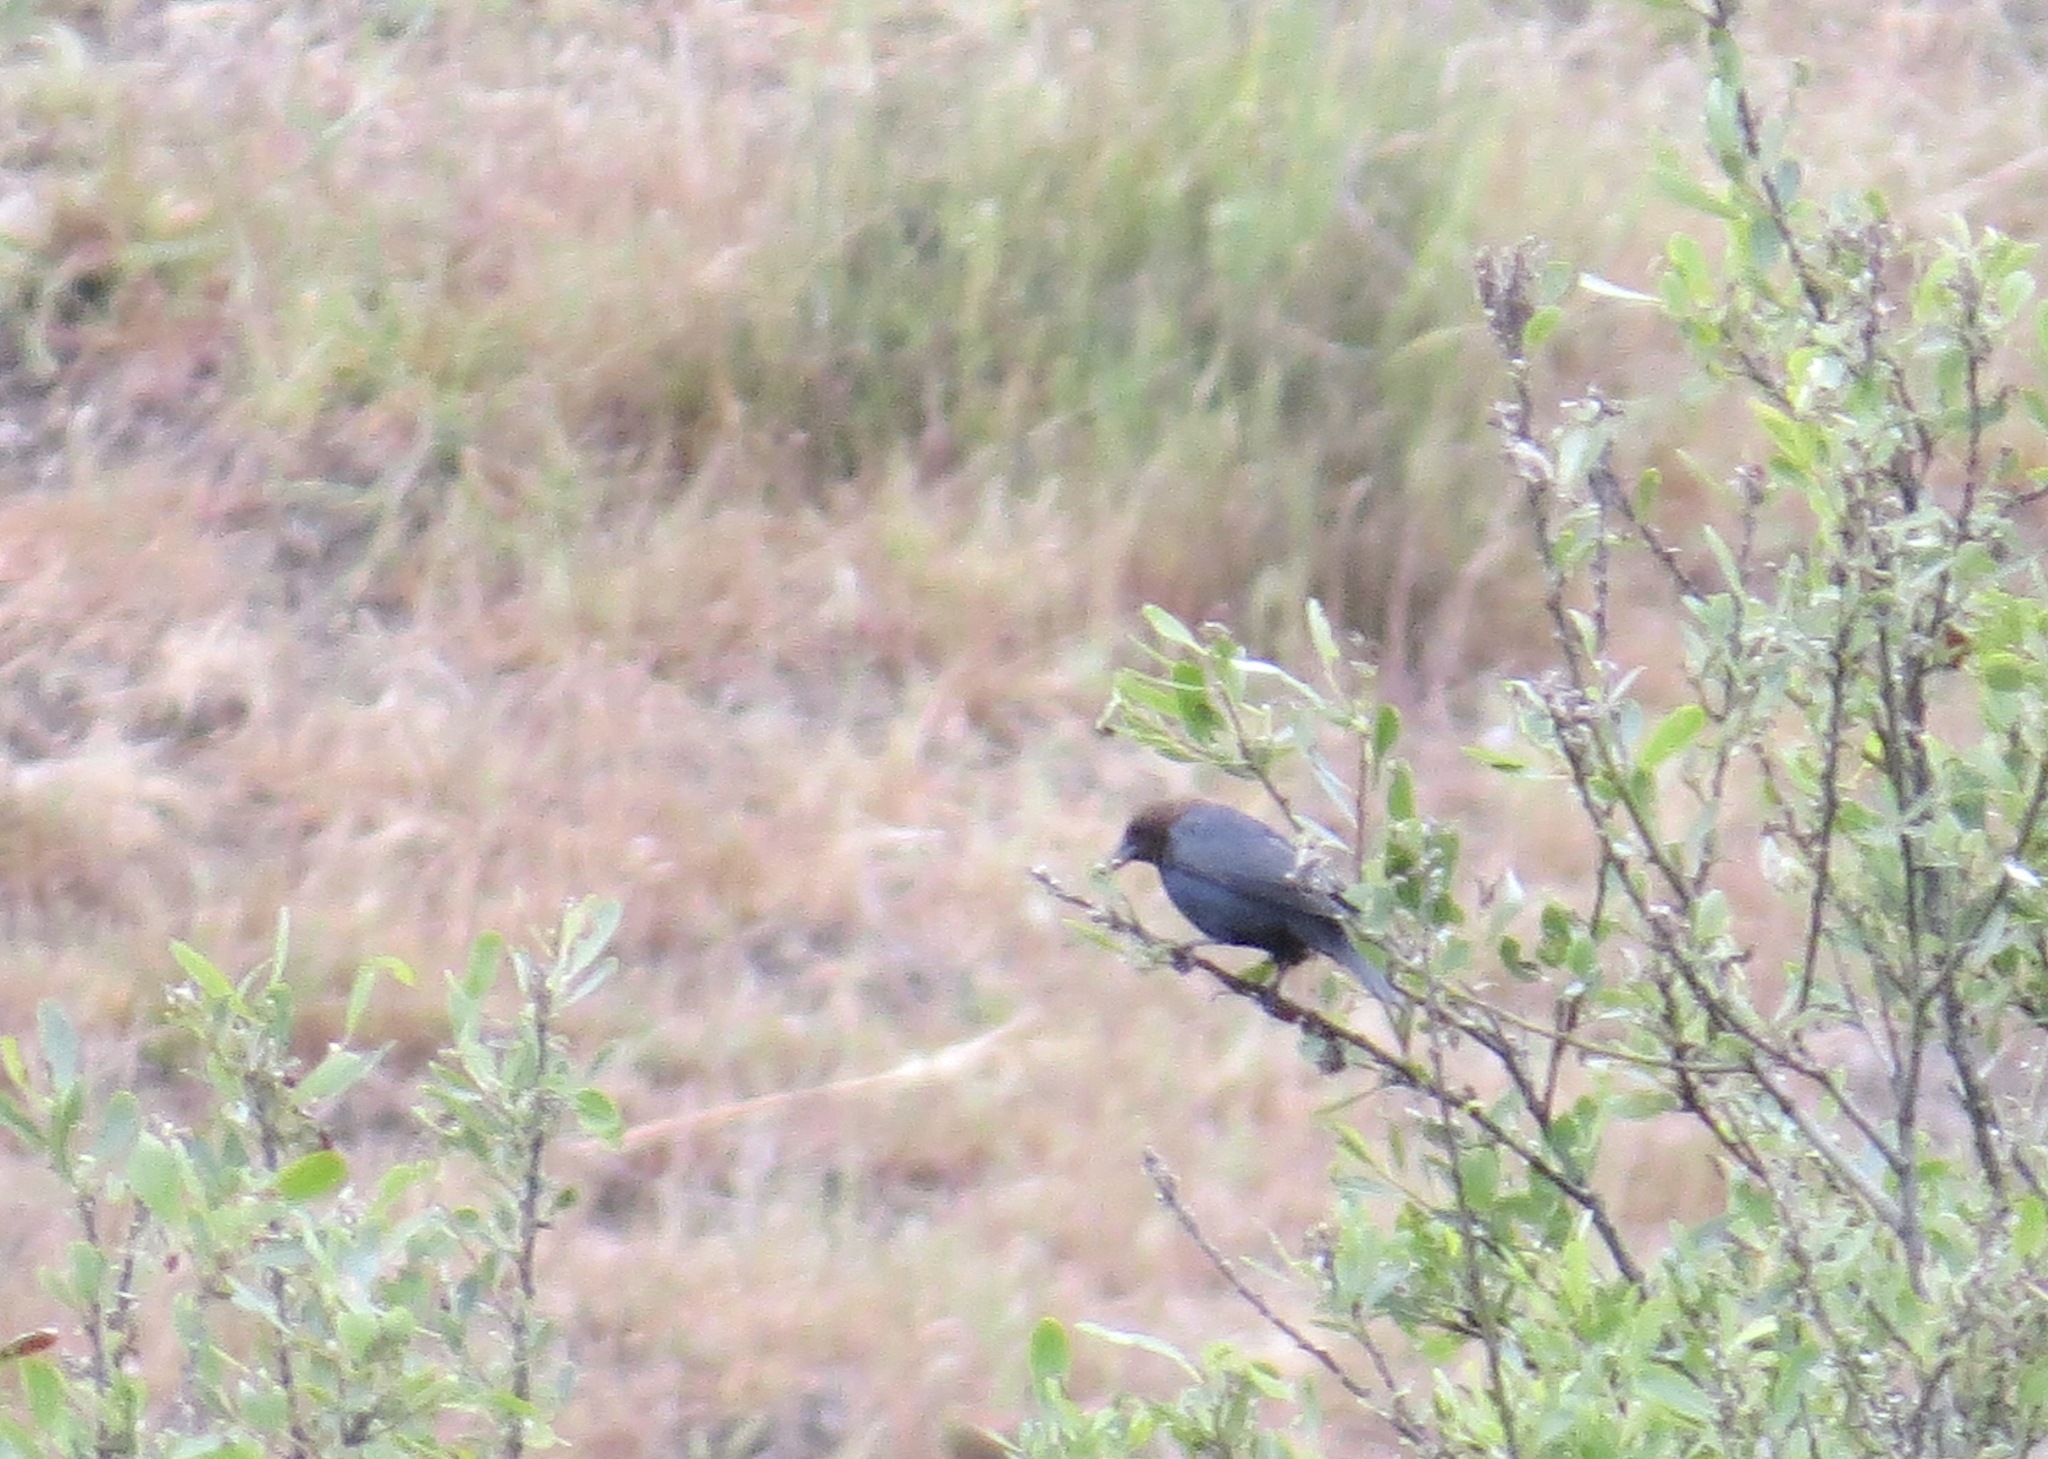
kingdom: Animalia
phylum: Chordata
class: Aves
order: Passeriformes
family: Icteridae
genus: Molothrus
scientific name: Molothrus ater
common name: Brown-headed cowbird
